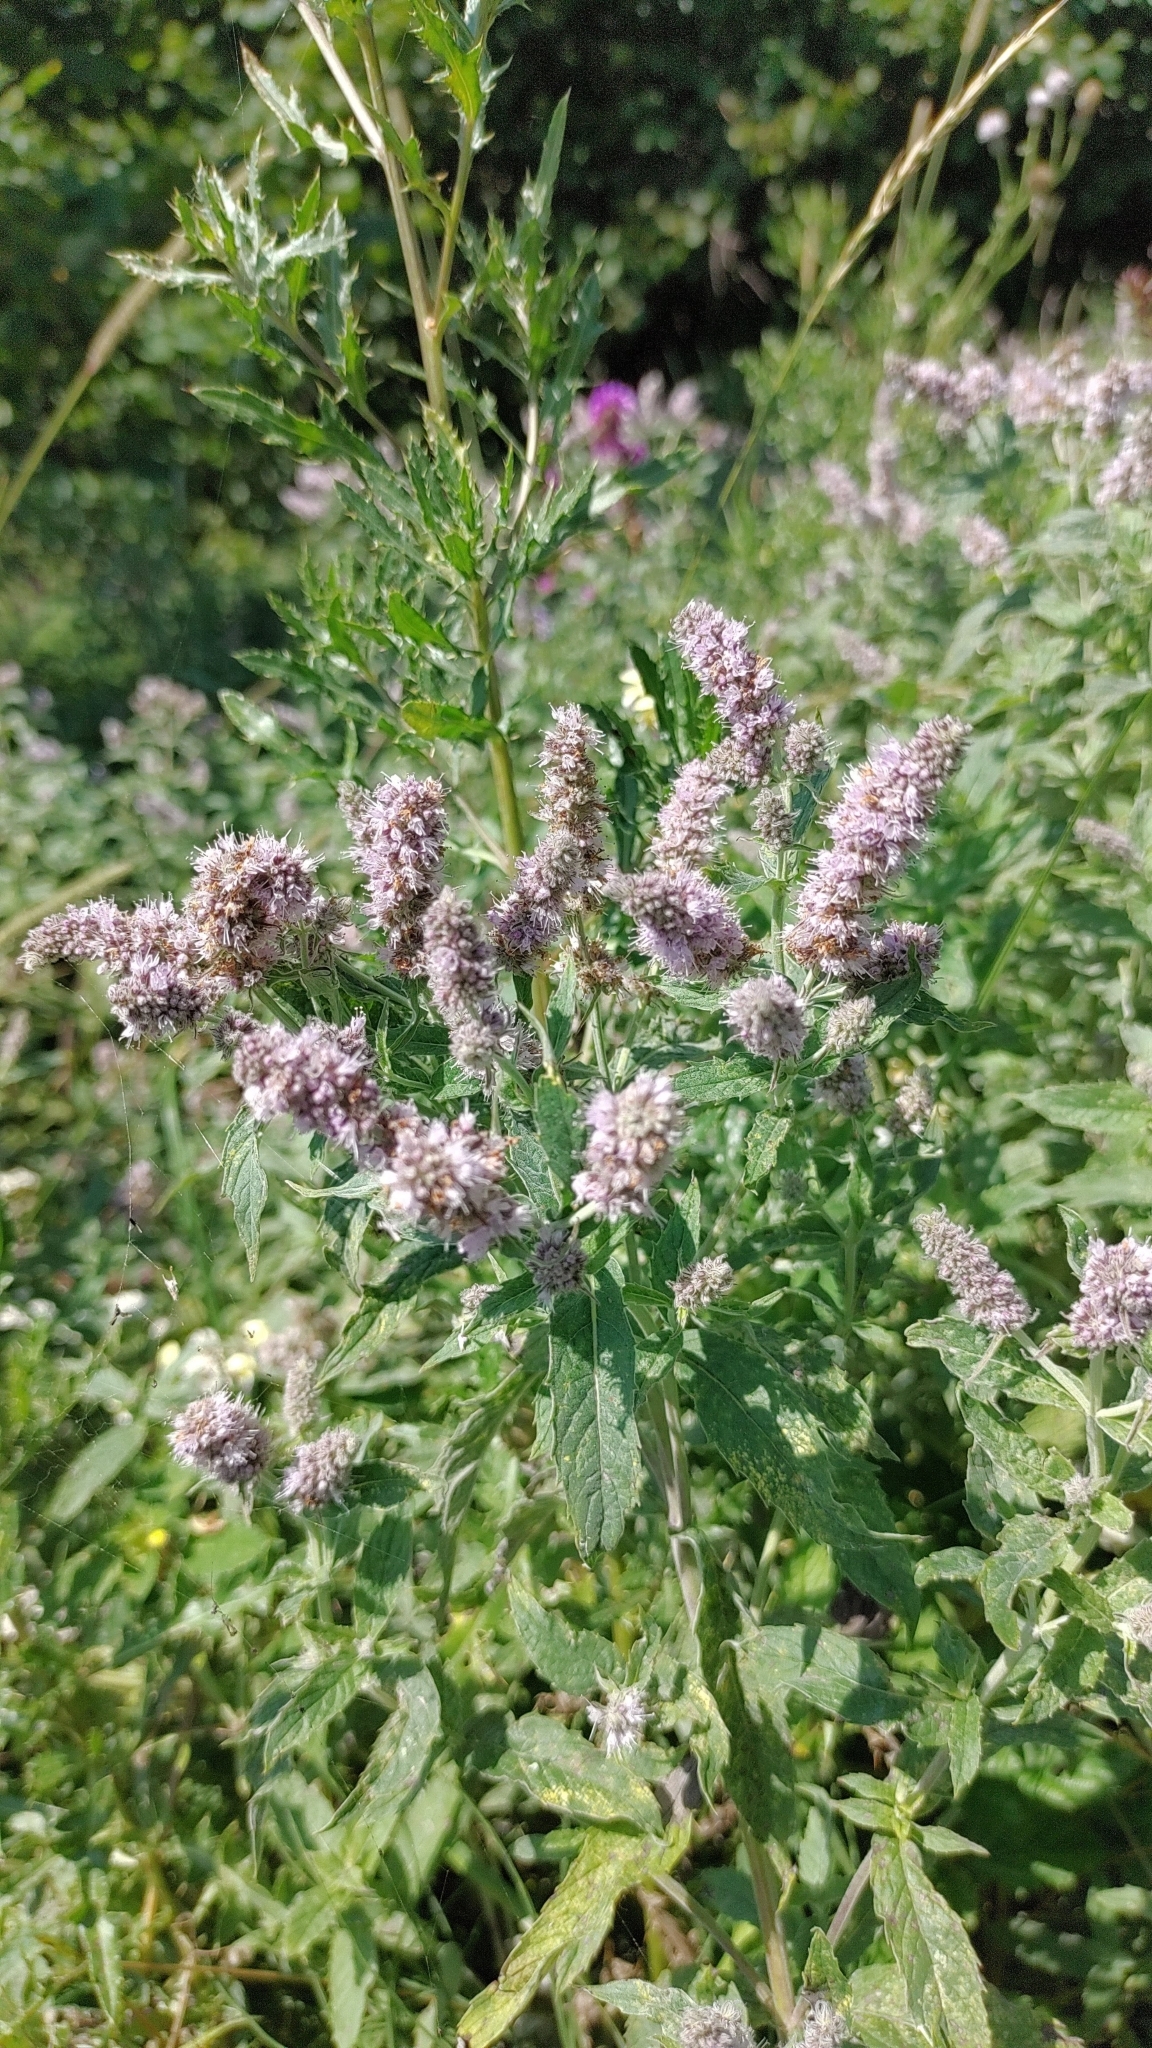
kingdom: Plantae
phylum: Tracheophyta
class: Magnoliopsida
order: Lamiales
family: Lamiaceae
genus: Mentha
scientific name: Mentha longifolia
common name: Horse mint
